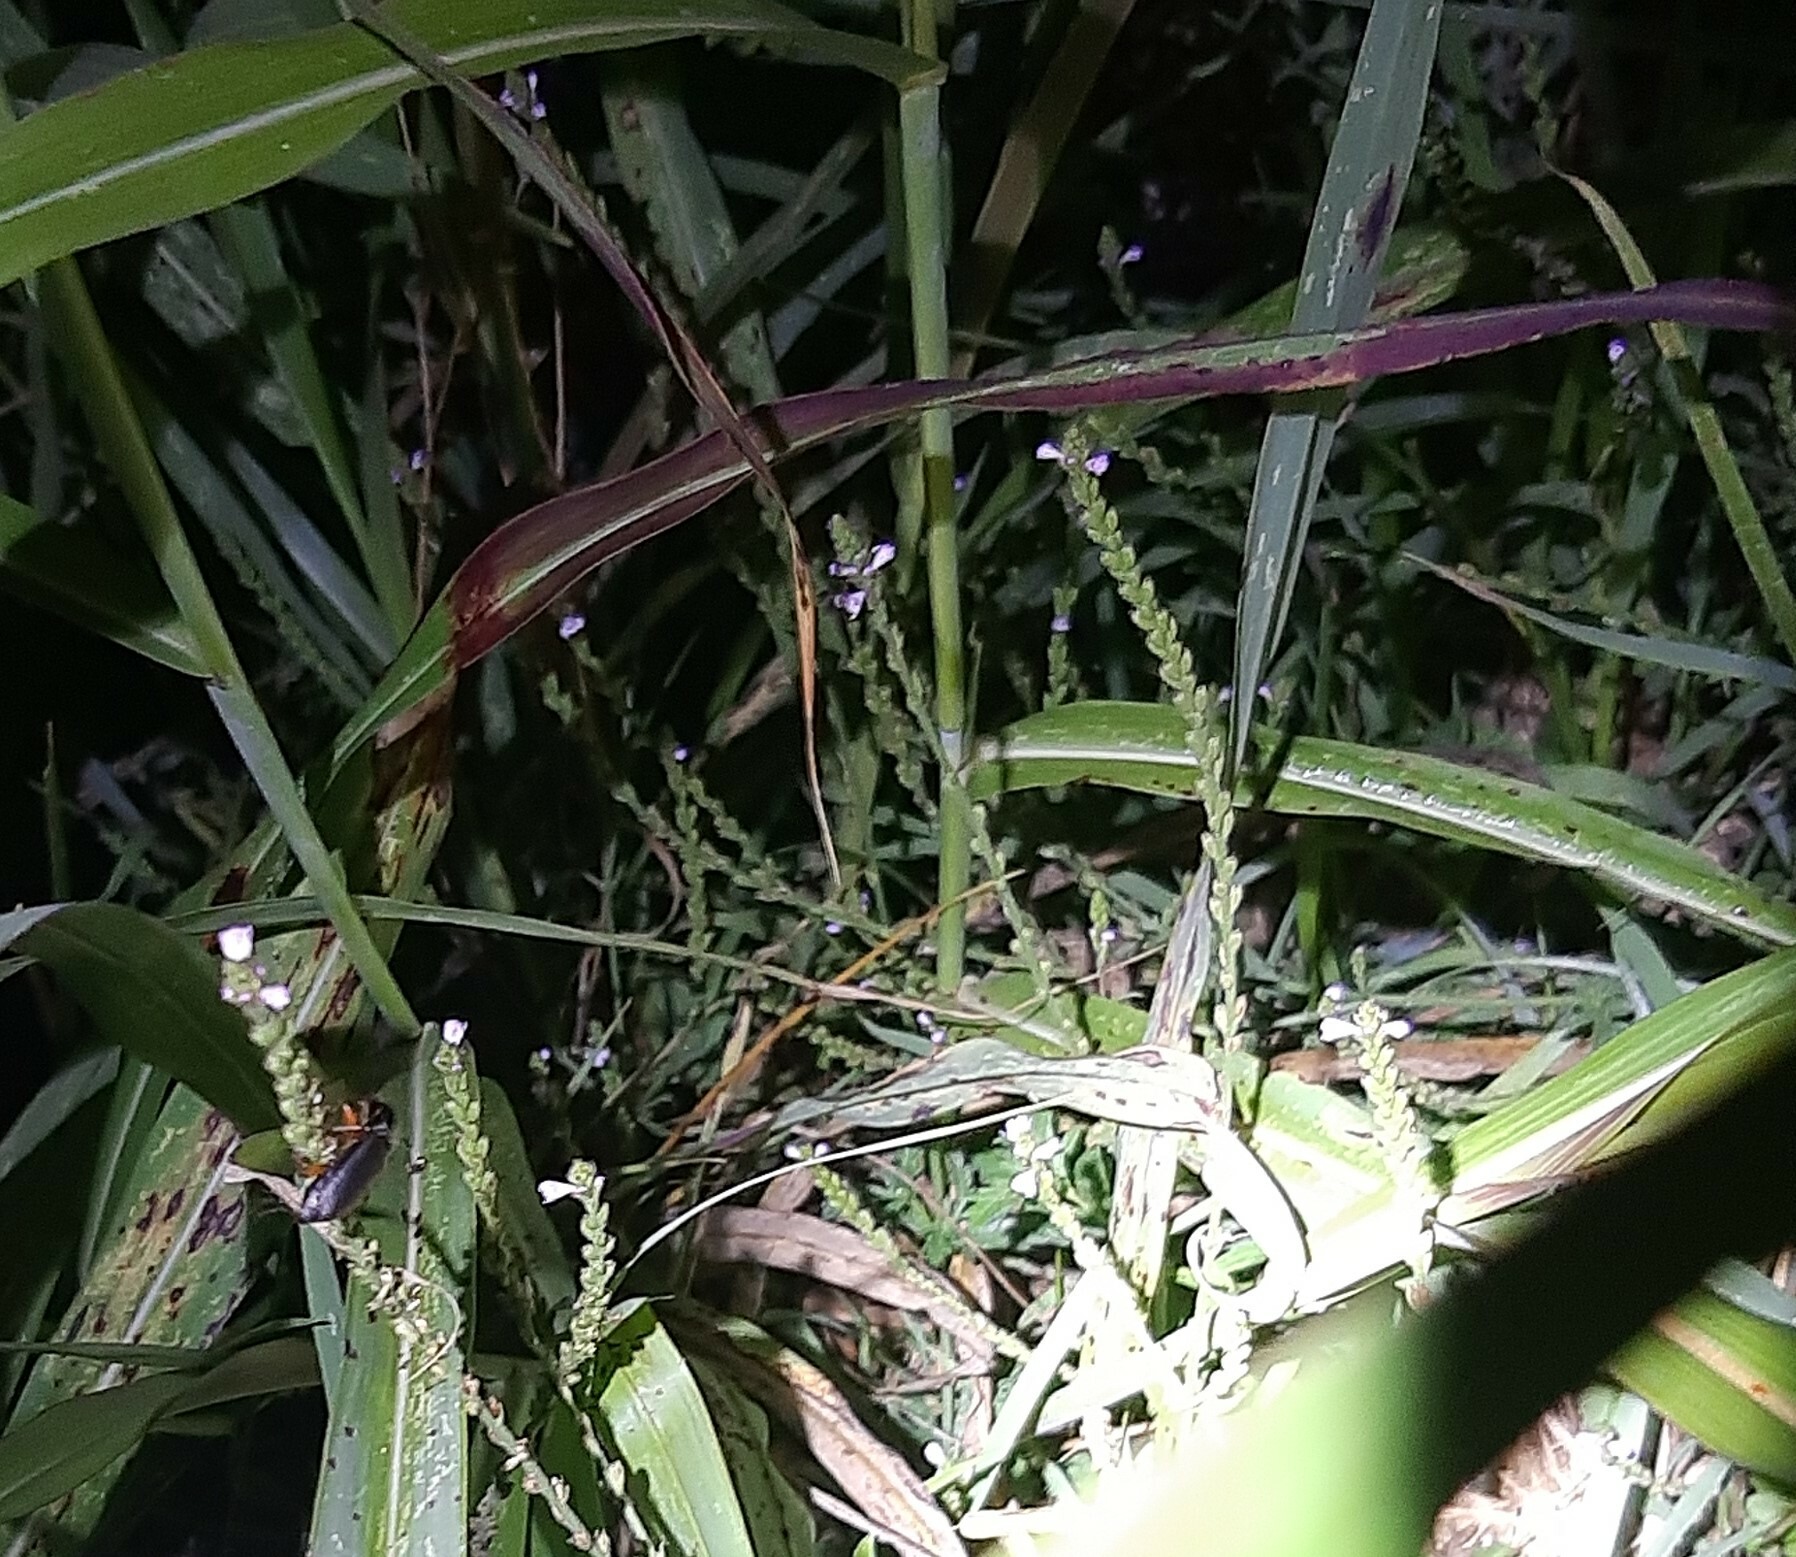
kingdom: Plantae
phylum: Tracheophyta
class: Magnoliopsida
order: Lamiales
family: Verbenaceae
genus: Verbena
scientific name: Verbena officinalis
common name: Vervain
